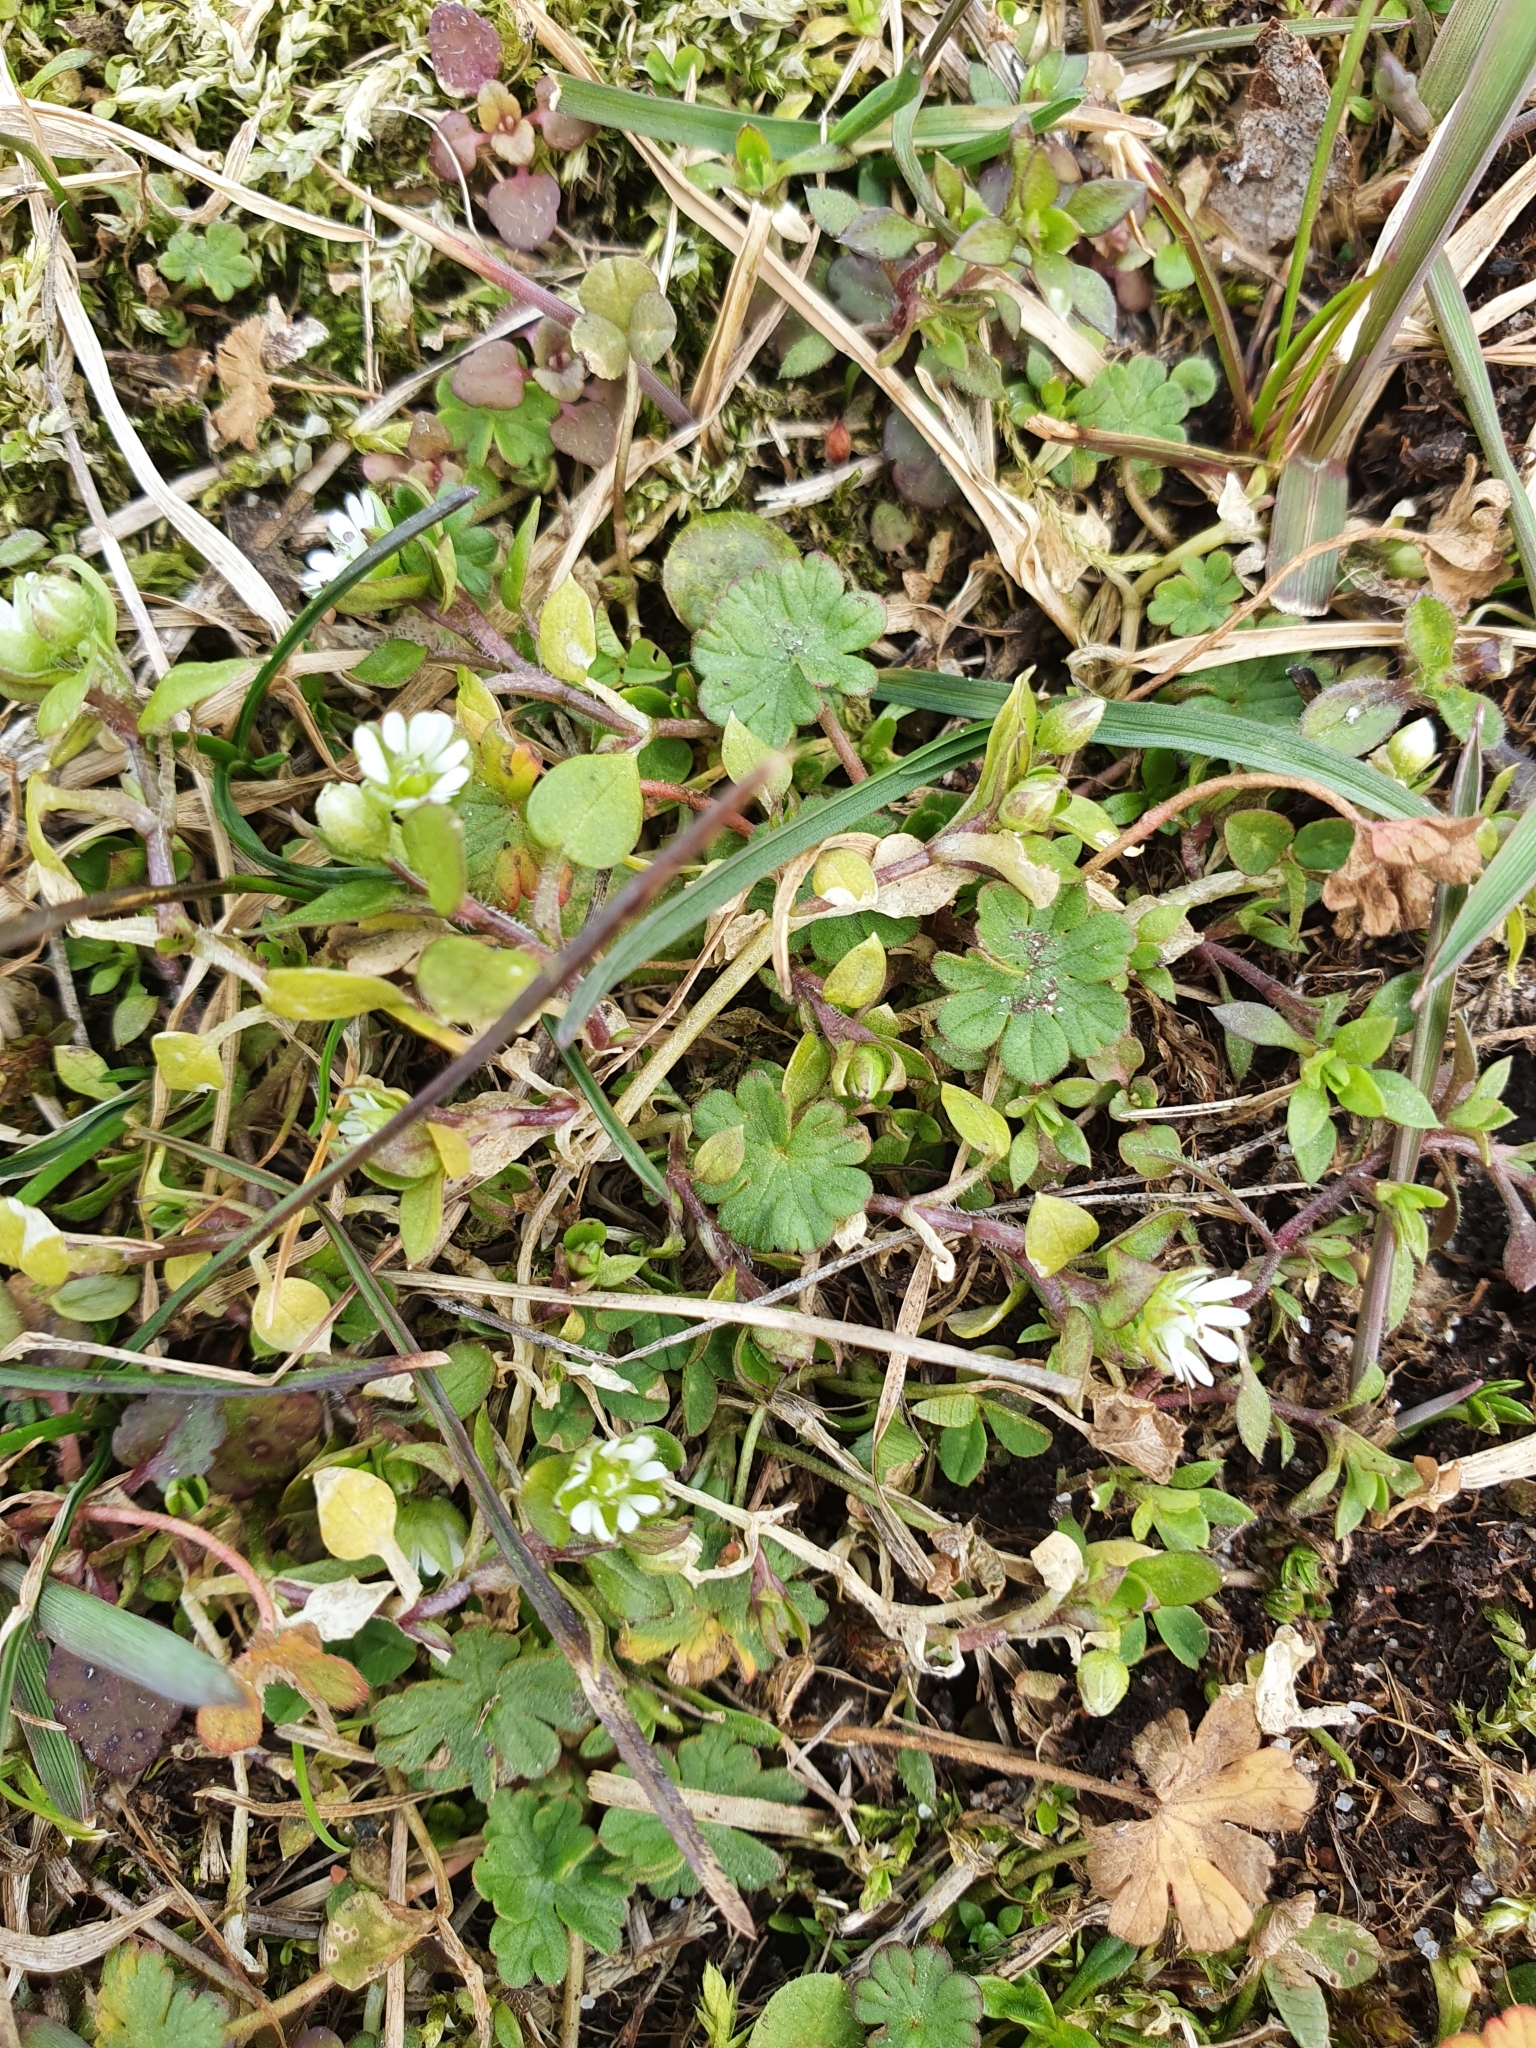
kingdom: Plantae
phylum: Tracheophyta
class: Magnoliopsida
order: Caryophyllales
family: Caryophyllaceae
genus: Stellaria
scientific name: Stellaria media
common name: Common chickweed
